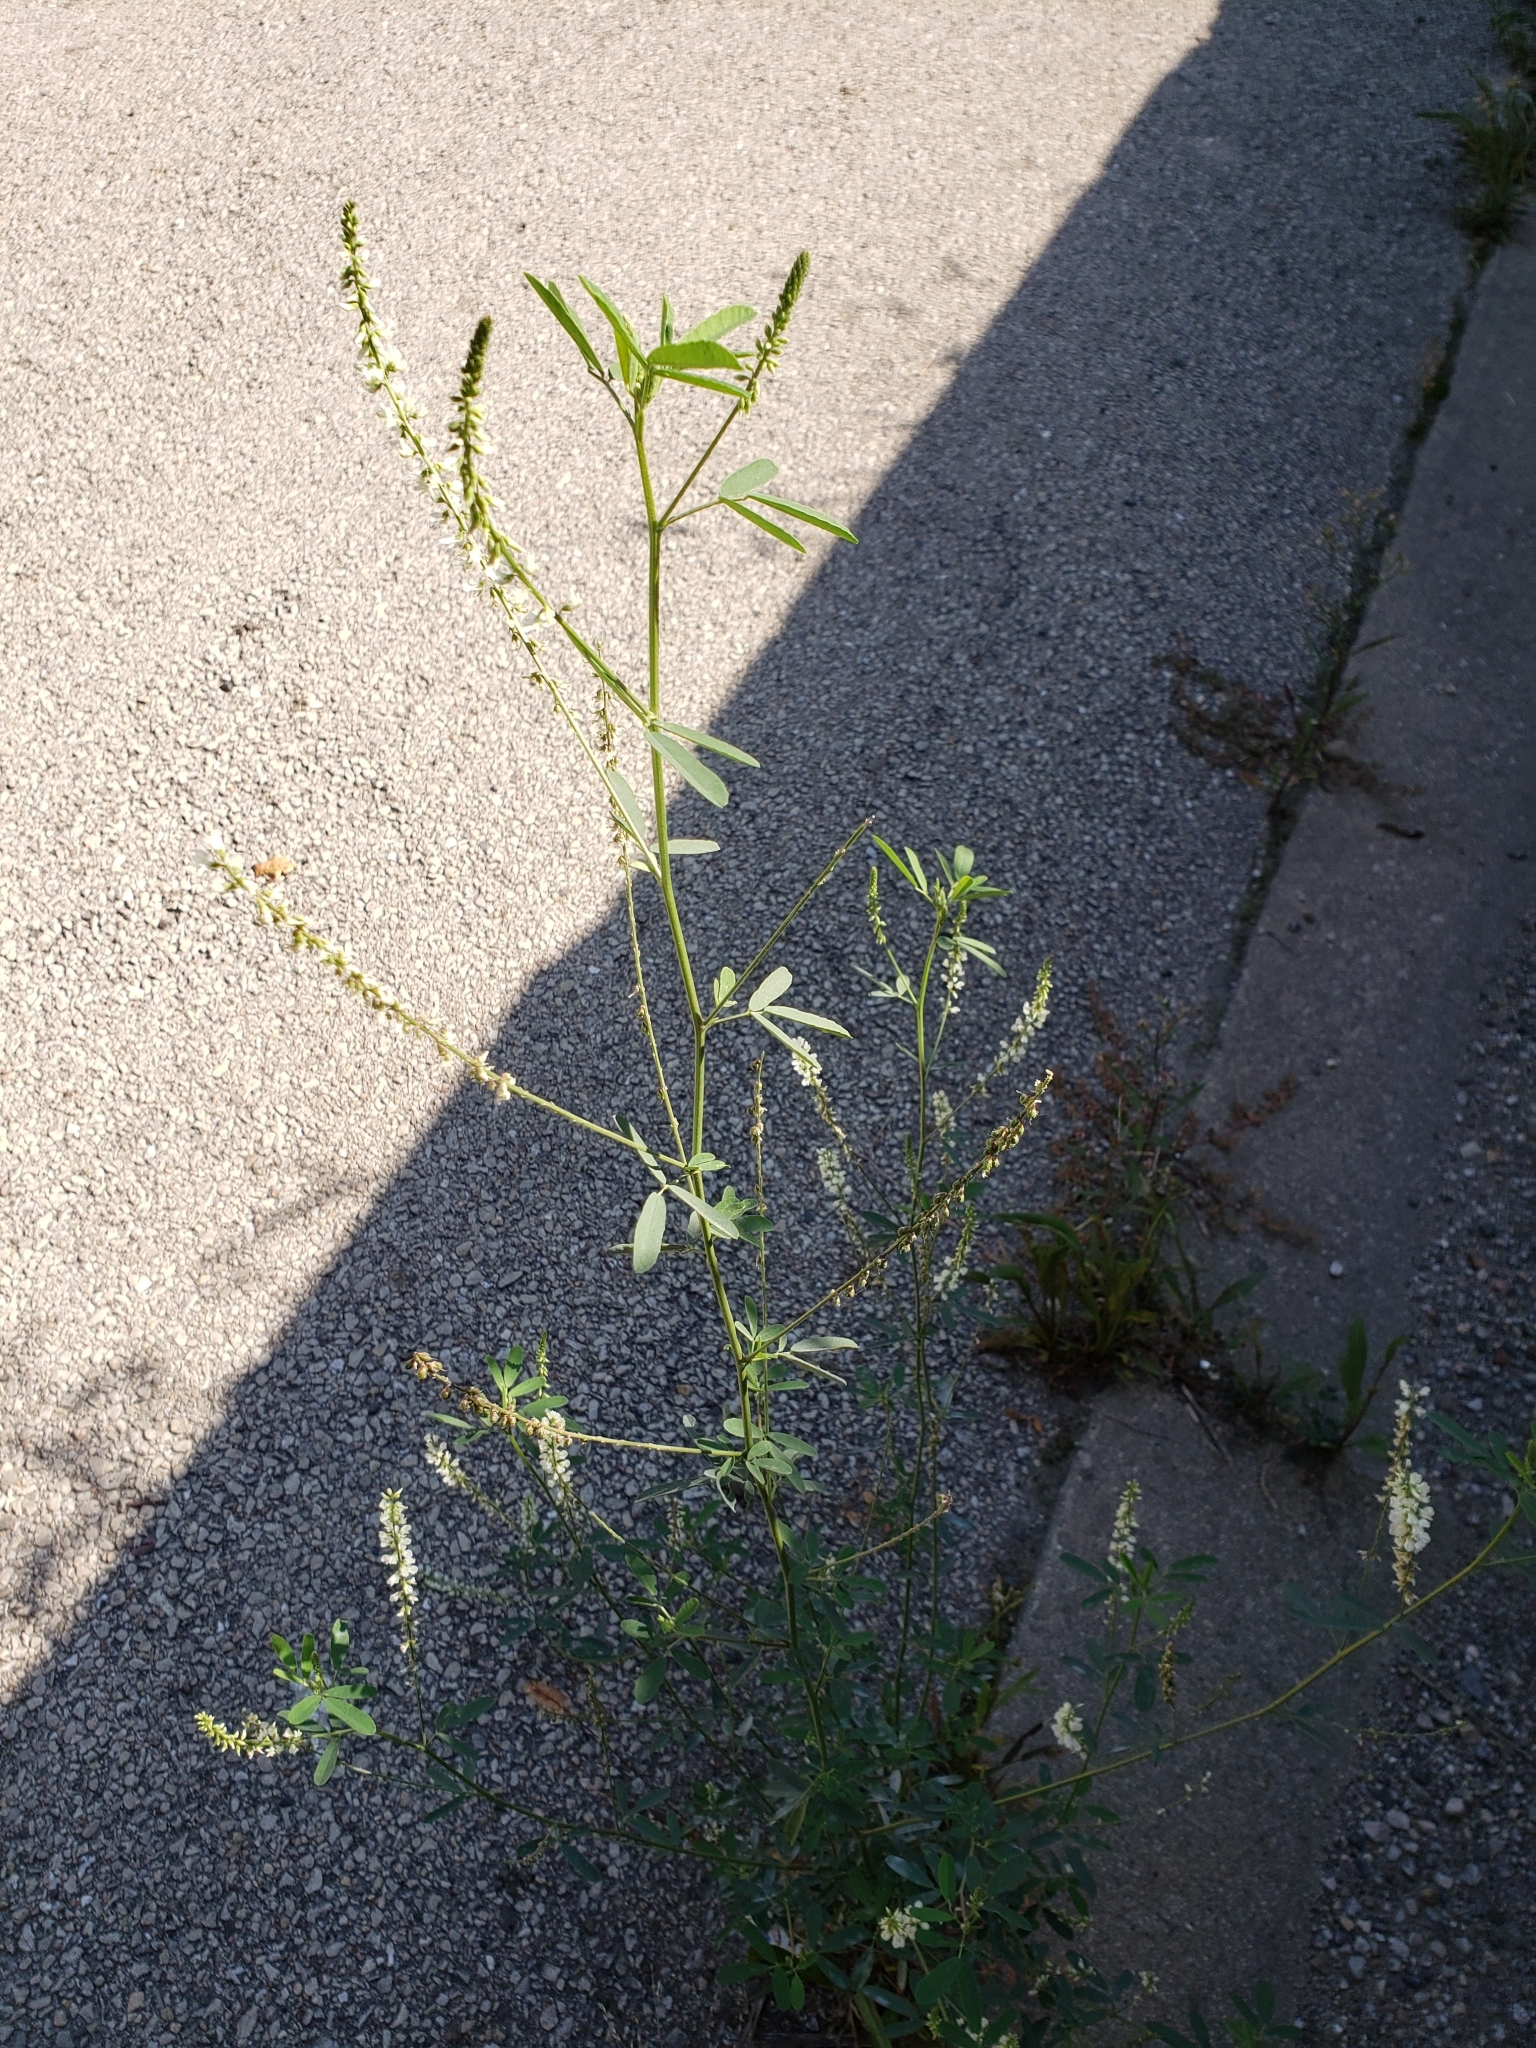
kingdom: Plantae
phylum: Tracheophyta
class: Magnoliopsida
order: Fabales
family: Fabaceae
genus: Melilotus
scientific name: Melilotus albus
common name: White melilot
